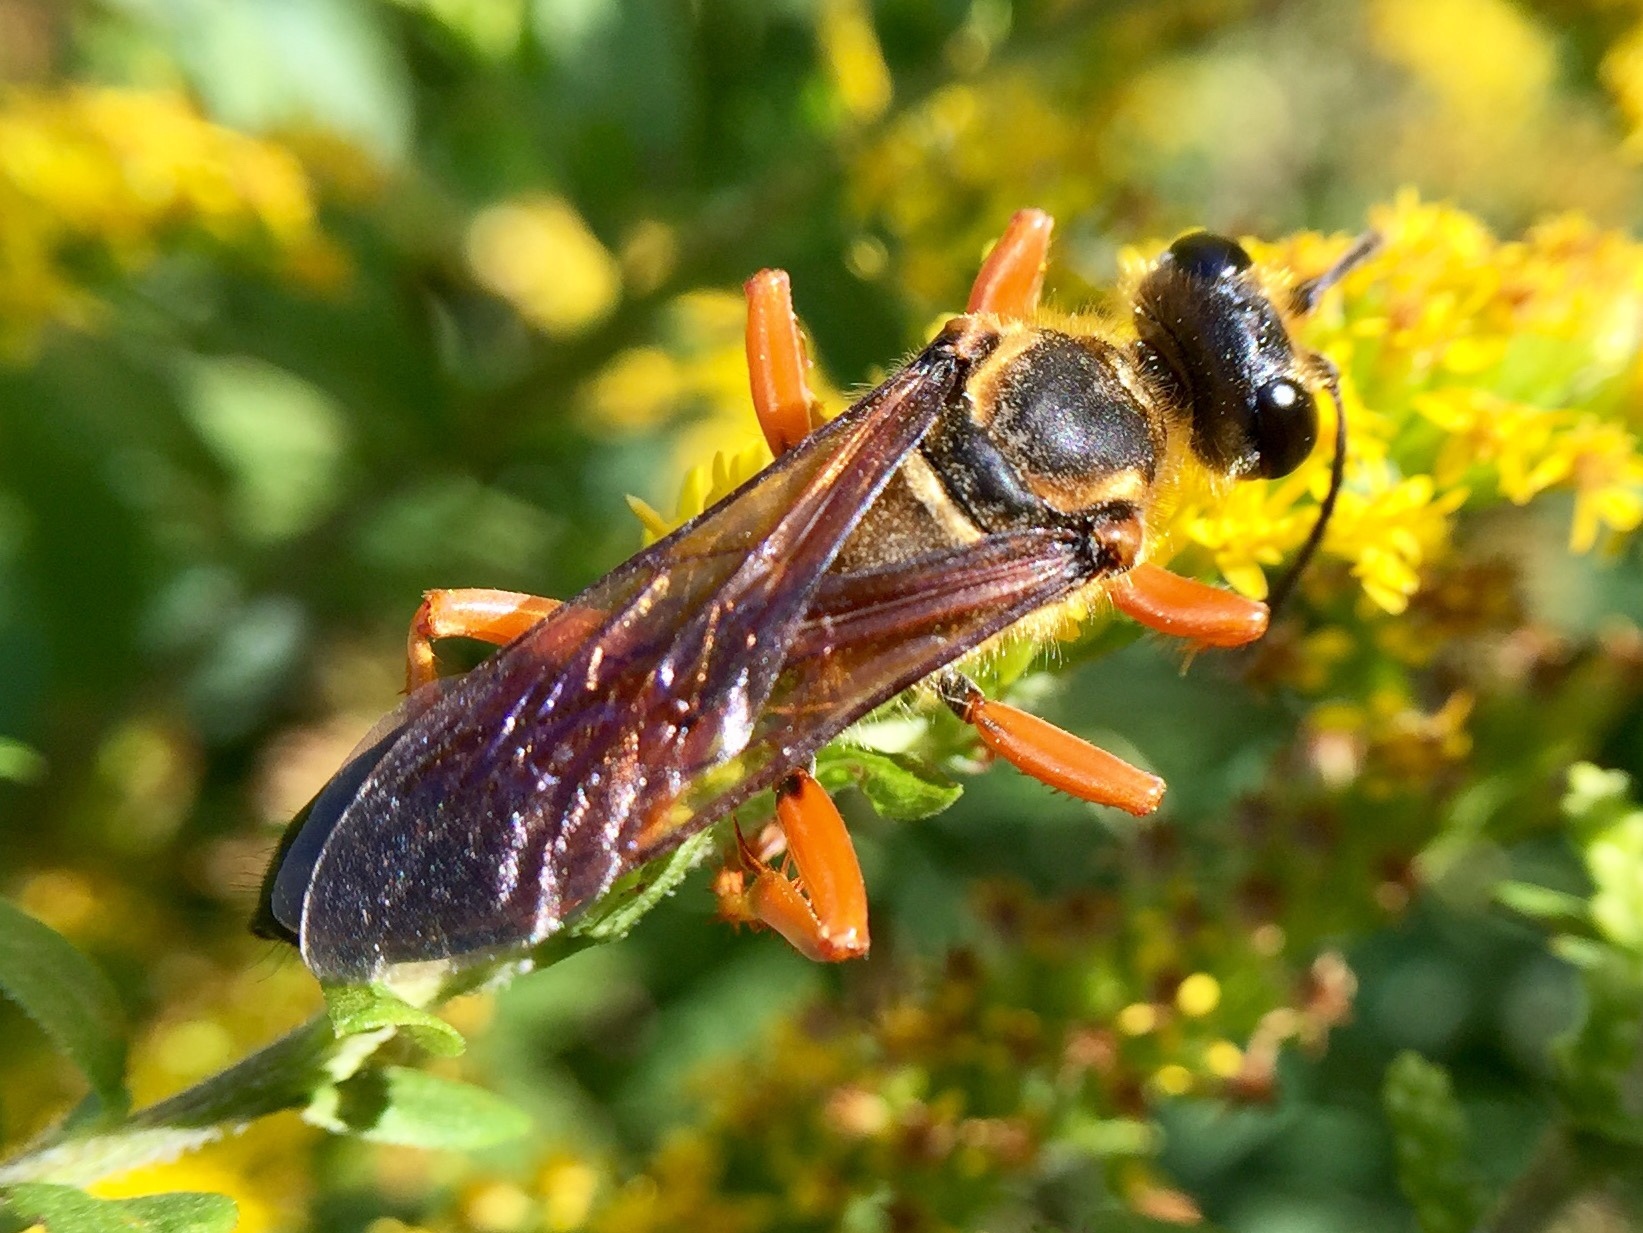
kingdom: Animalia
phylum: Arthropoda
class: Insecta
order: Hymenoptera
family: Sphecidae
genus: Sphex
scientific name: Sphex ichneumoneus
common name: Great golden digger wasp
